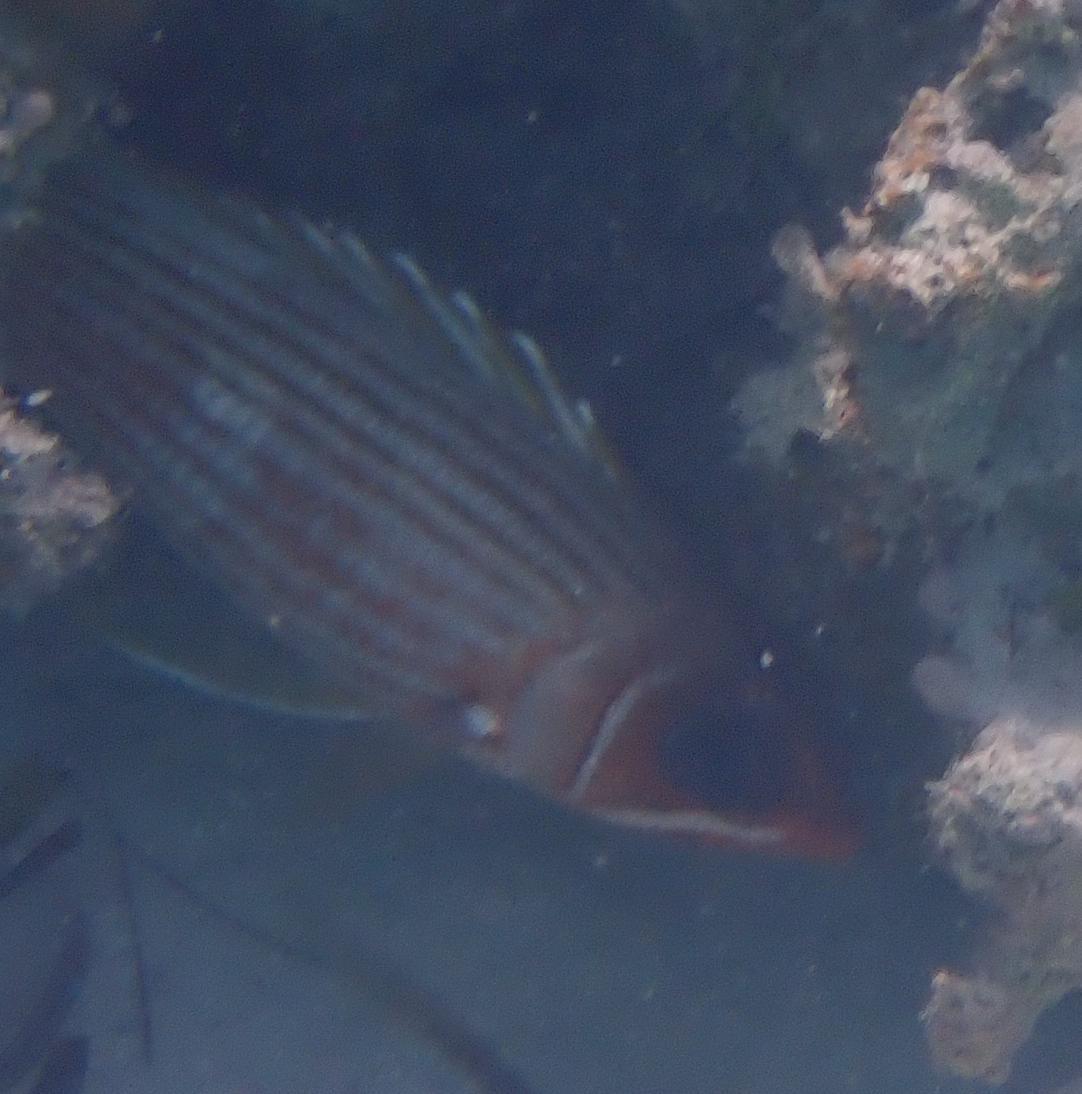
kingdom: Animalia
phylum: Chordata
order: Beryciformes
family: Holocentridae
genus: Holocentrus
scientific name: Holocentrus rufus
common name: Longspine squirrelfish
